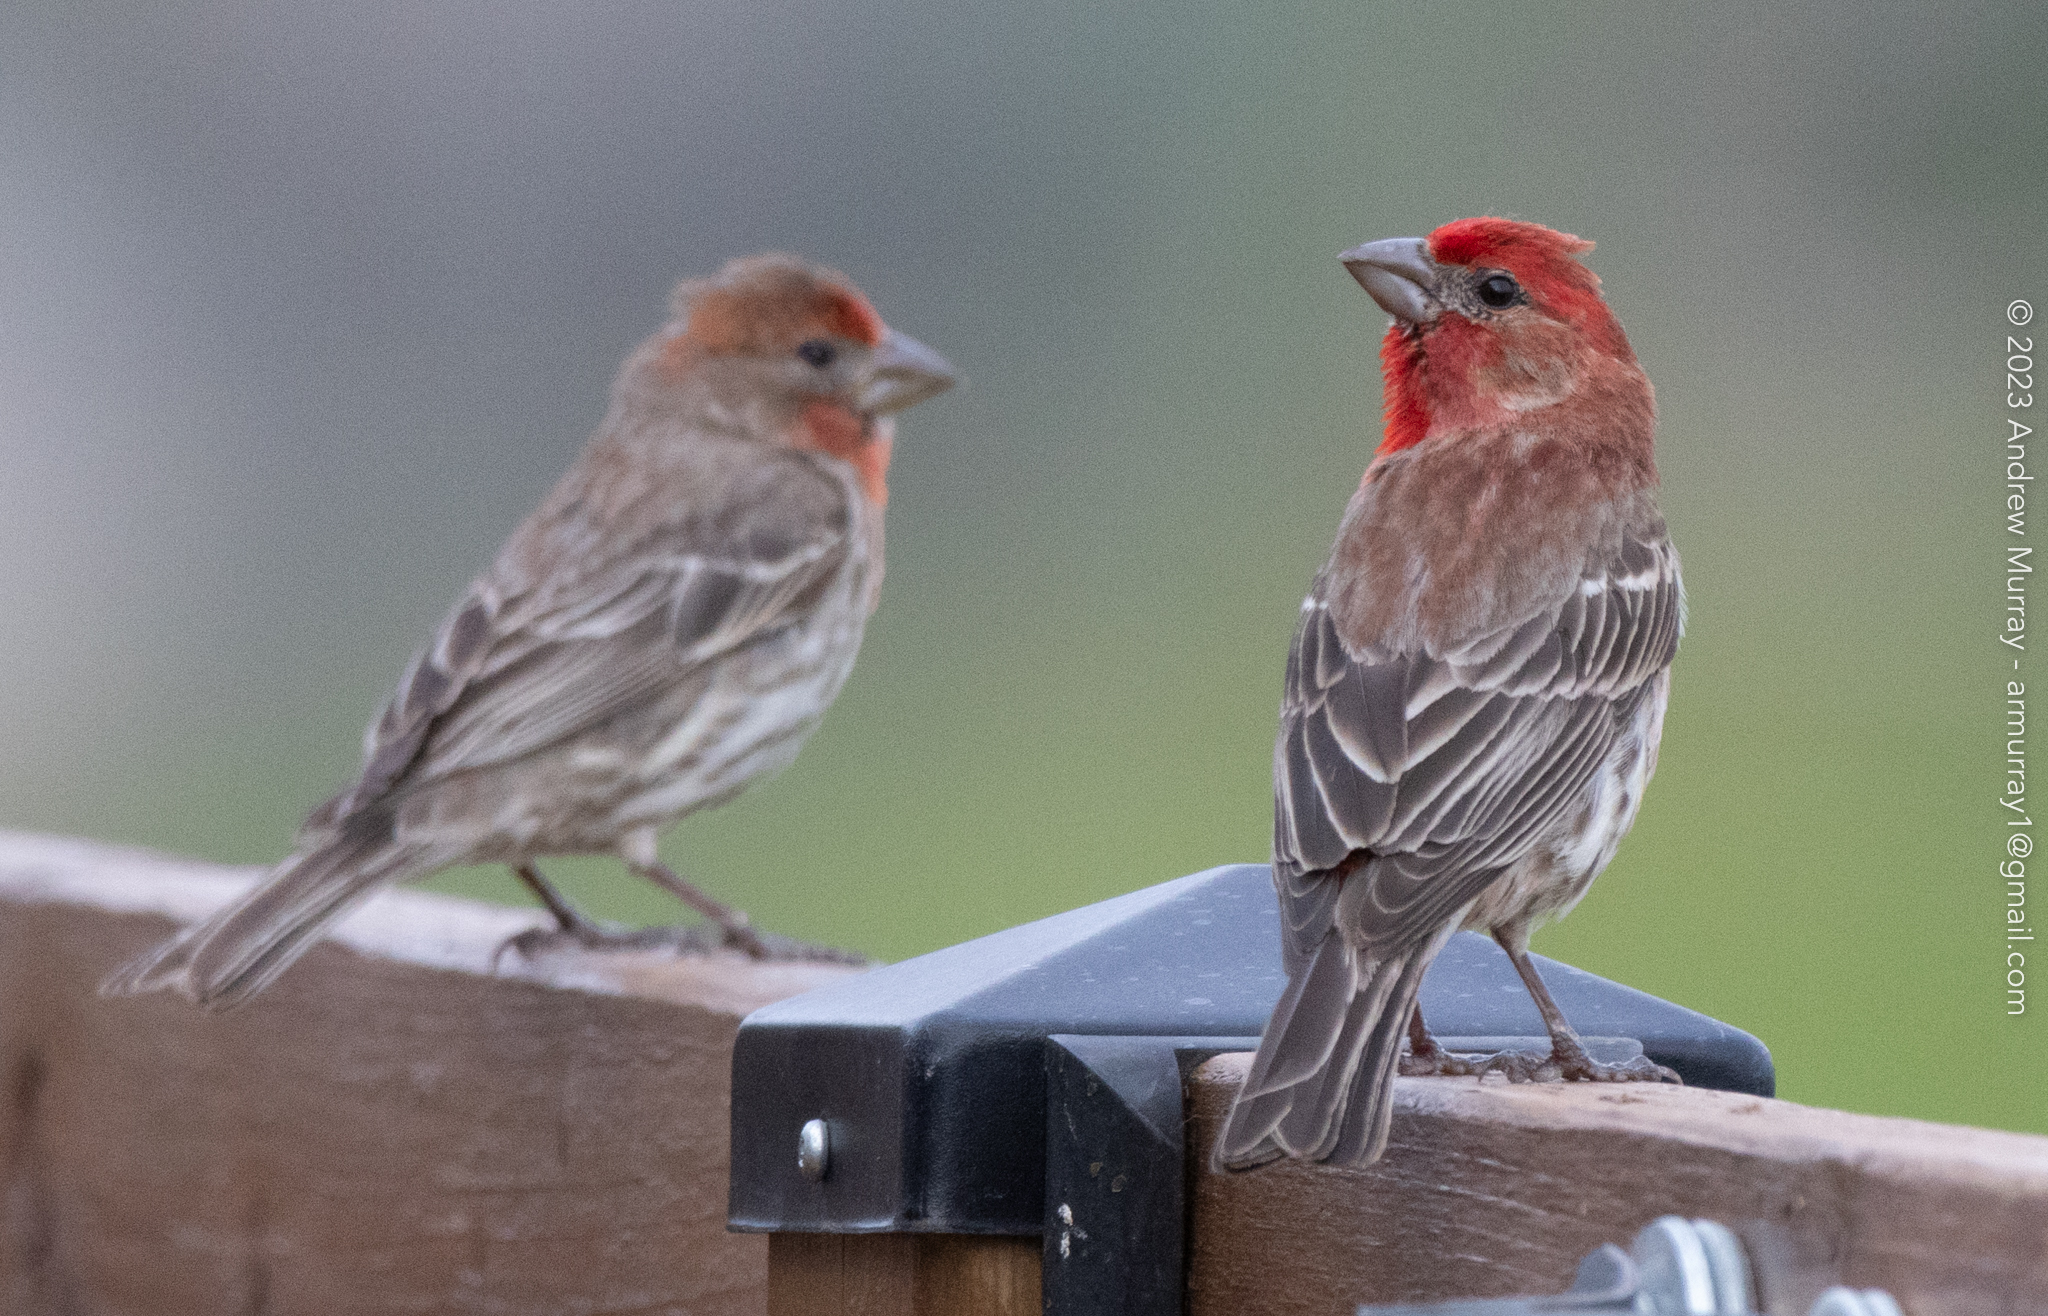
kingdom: Animalia
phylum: Chordata
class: Aves
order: Passeriformes
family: Fringillidae
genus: Haemorhous
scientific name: Haemorhous mexicanus
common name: House finch
